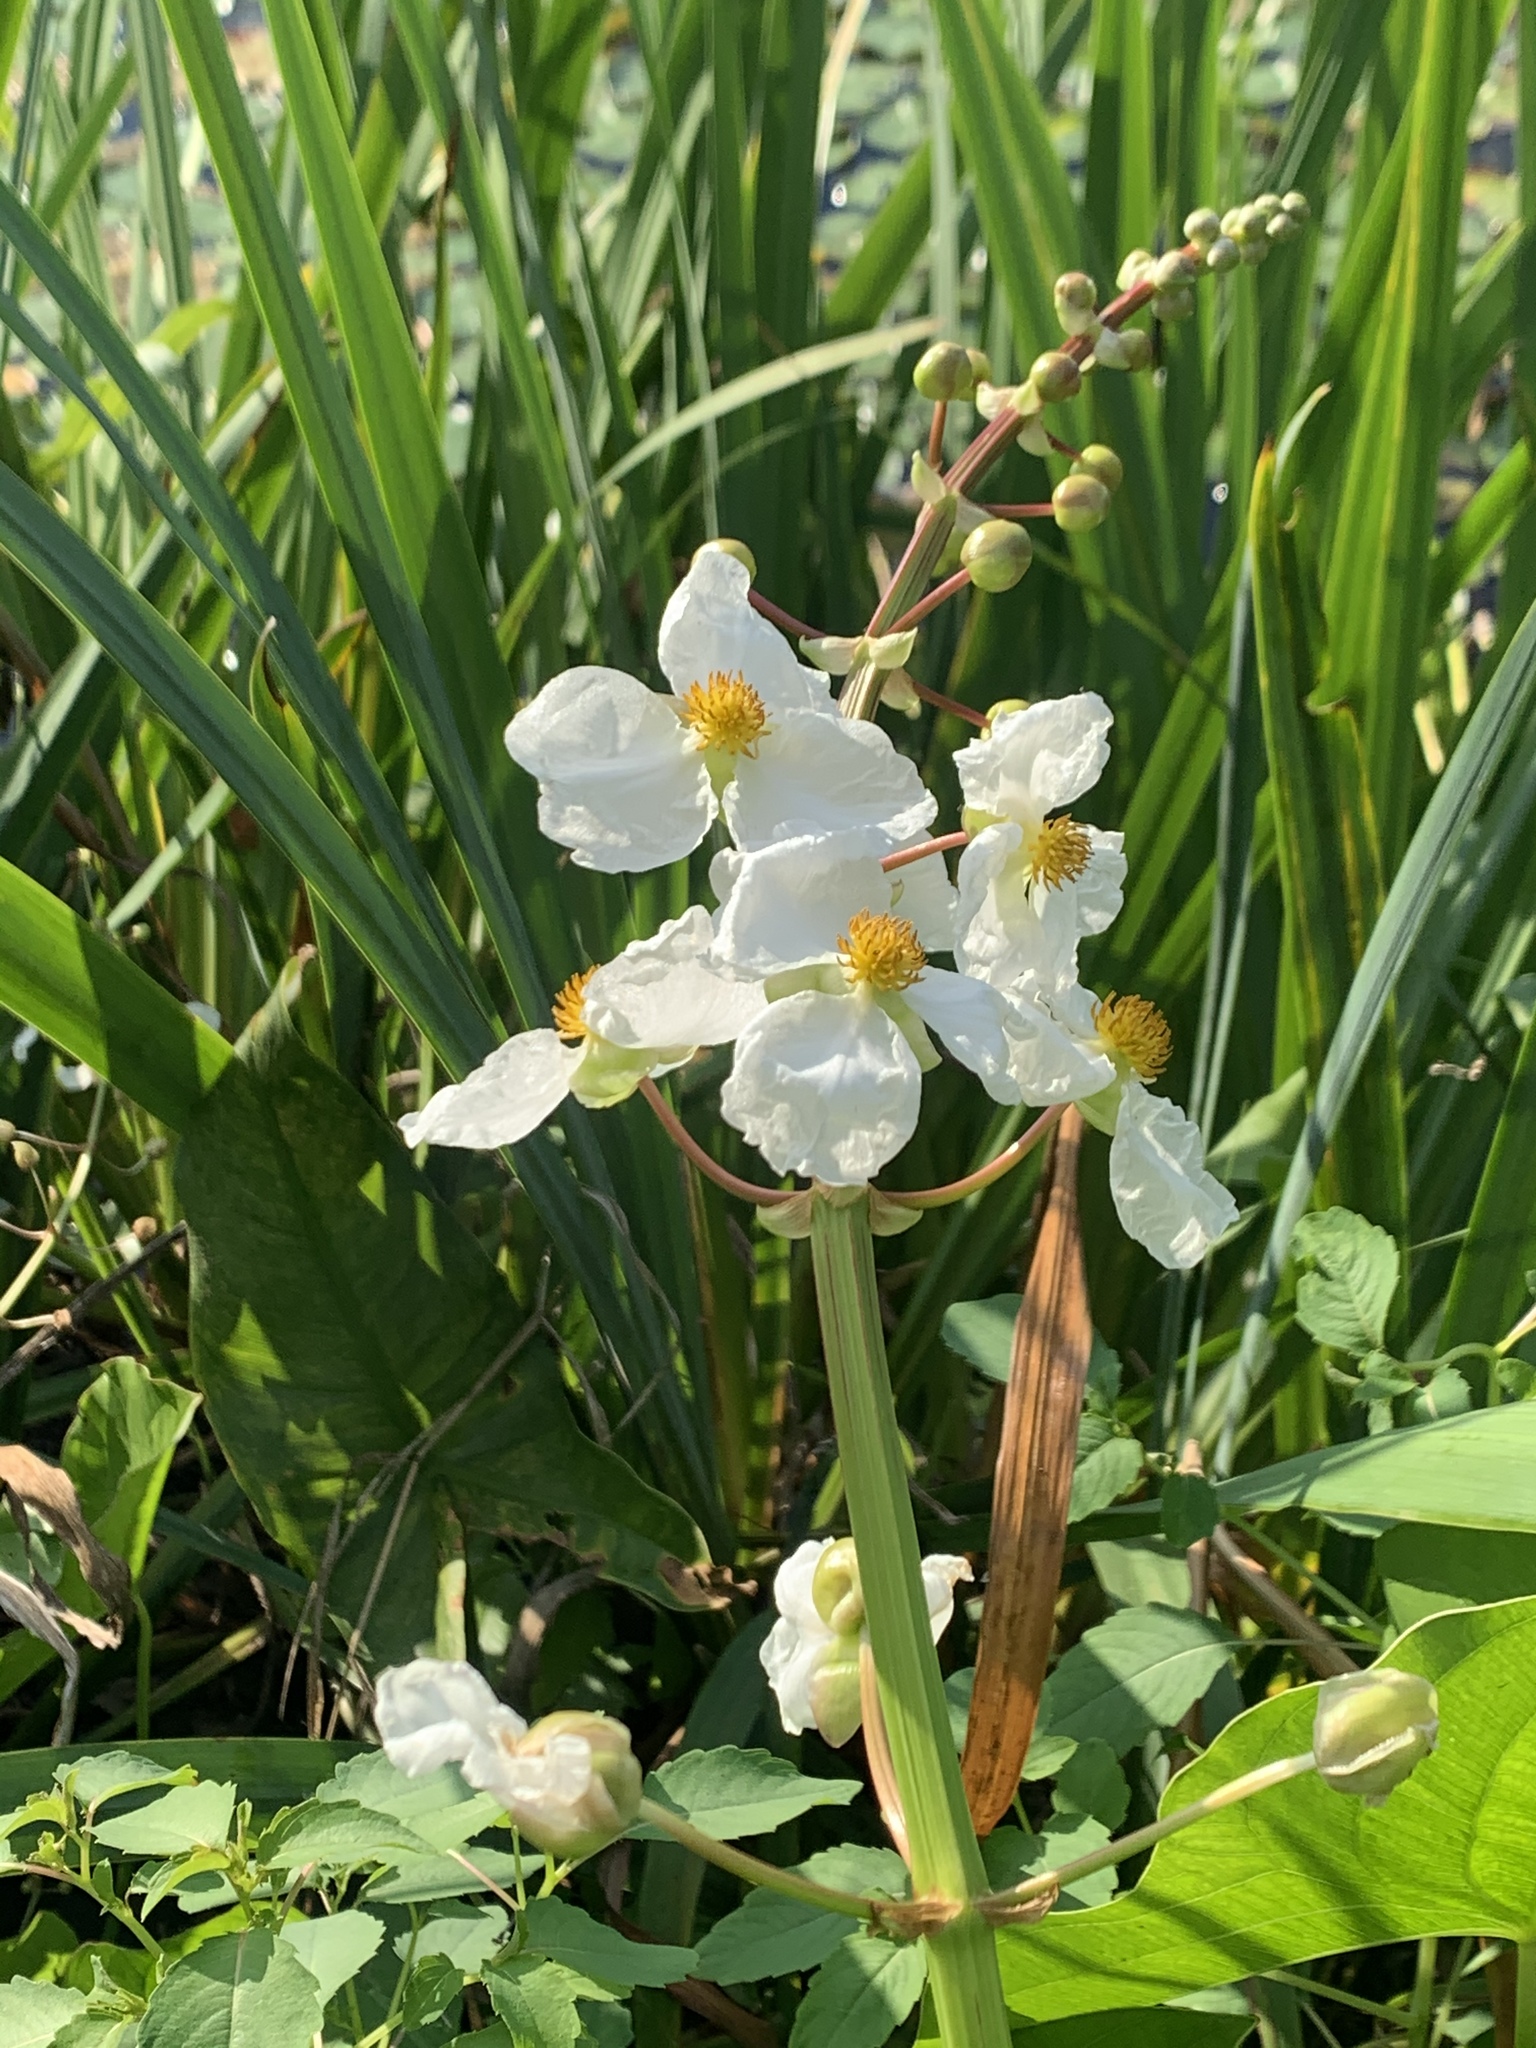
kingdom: Plantae
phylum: Tracheophyta
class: Liliopsida
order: Alismatales
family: Alismataceae
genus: Sagittaria
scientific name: Sagittaria latifolia
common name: Duck-potato
